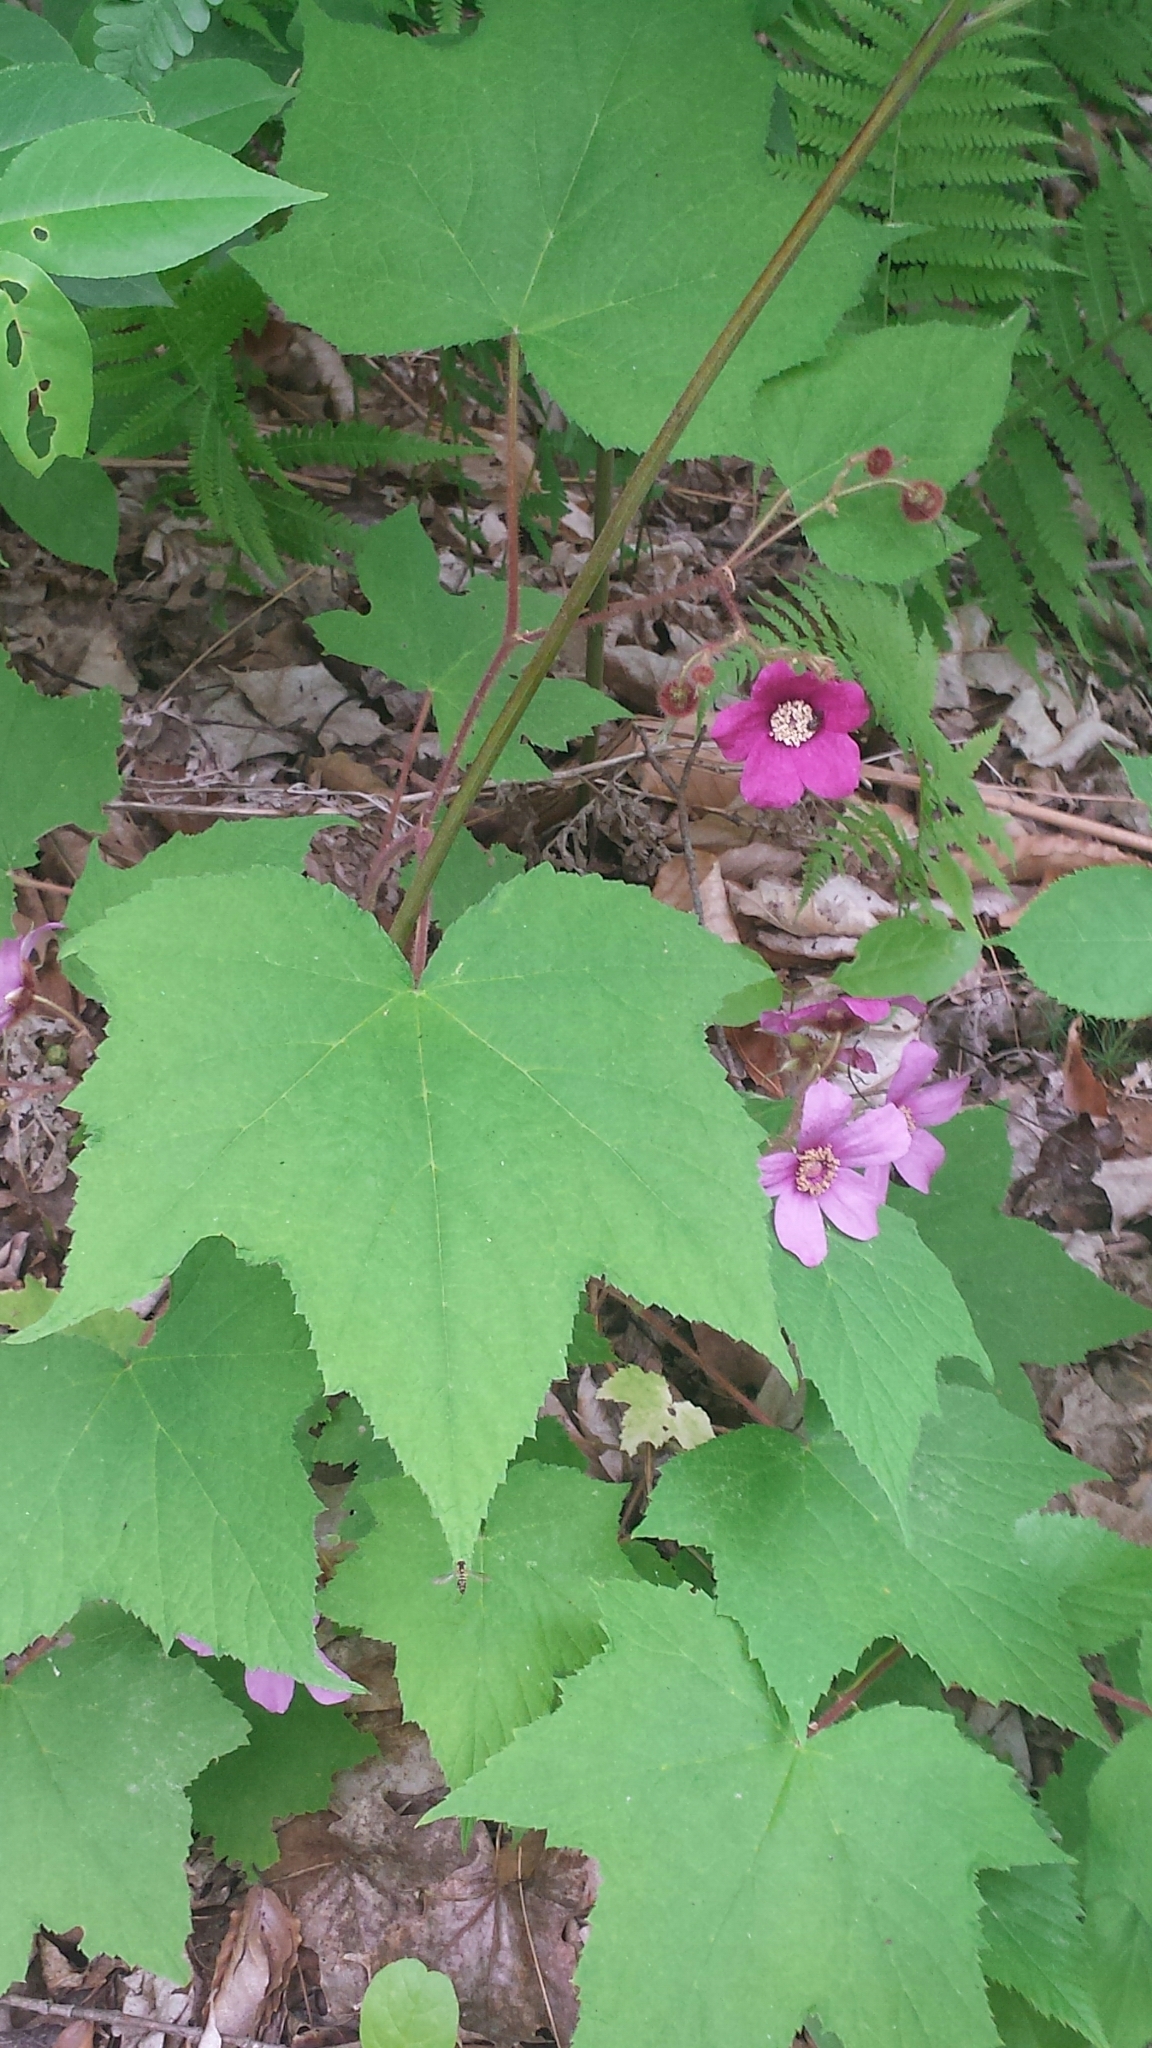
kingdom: Plantae
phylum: Tracheophyta
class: Magnoliopsida
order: Rosales
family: Rosaceae
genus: Rubus
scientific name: Rubus odoratus
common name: Purple-flowered raspberry
